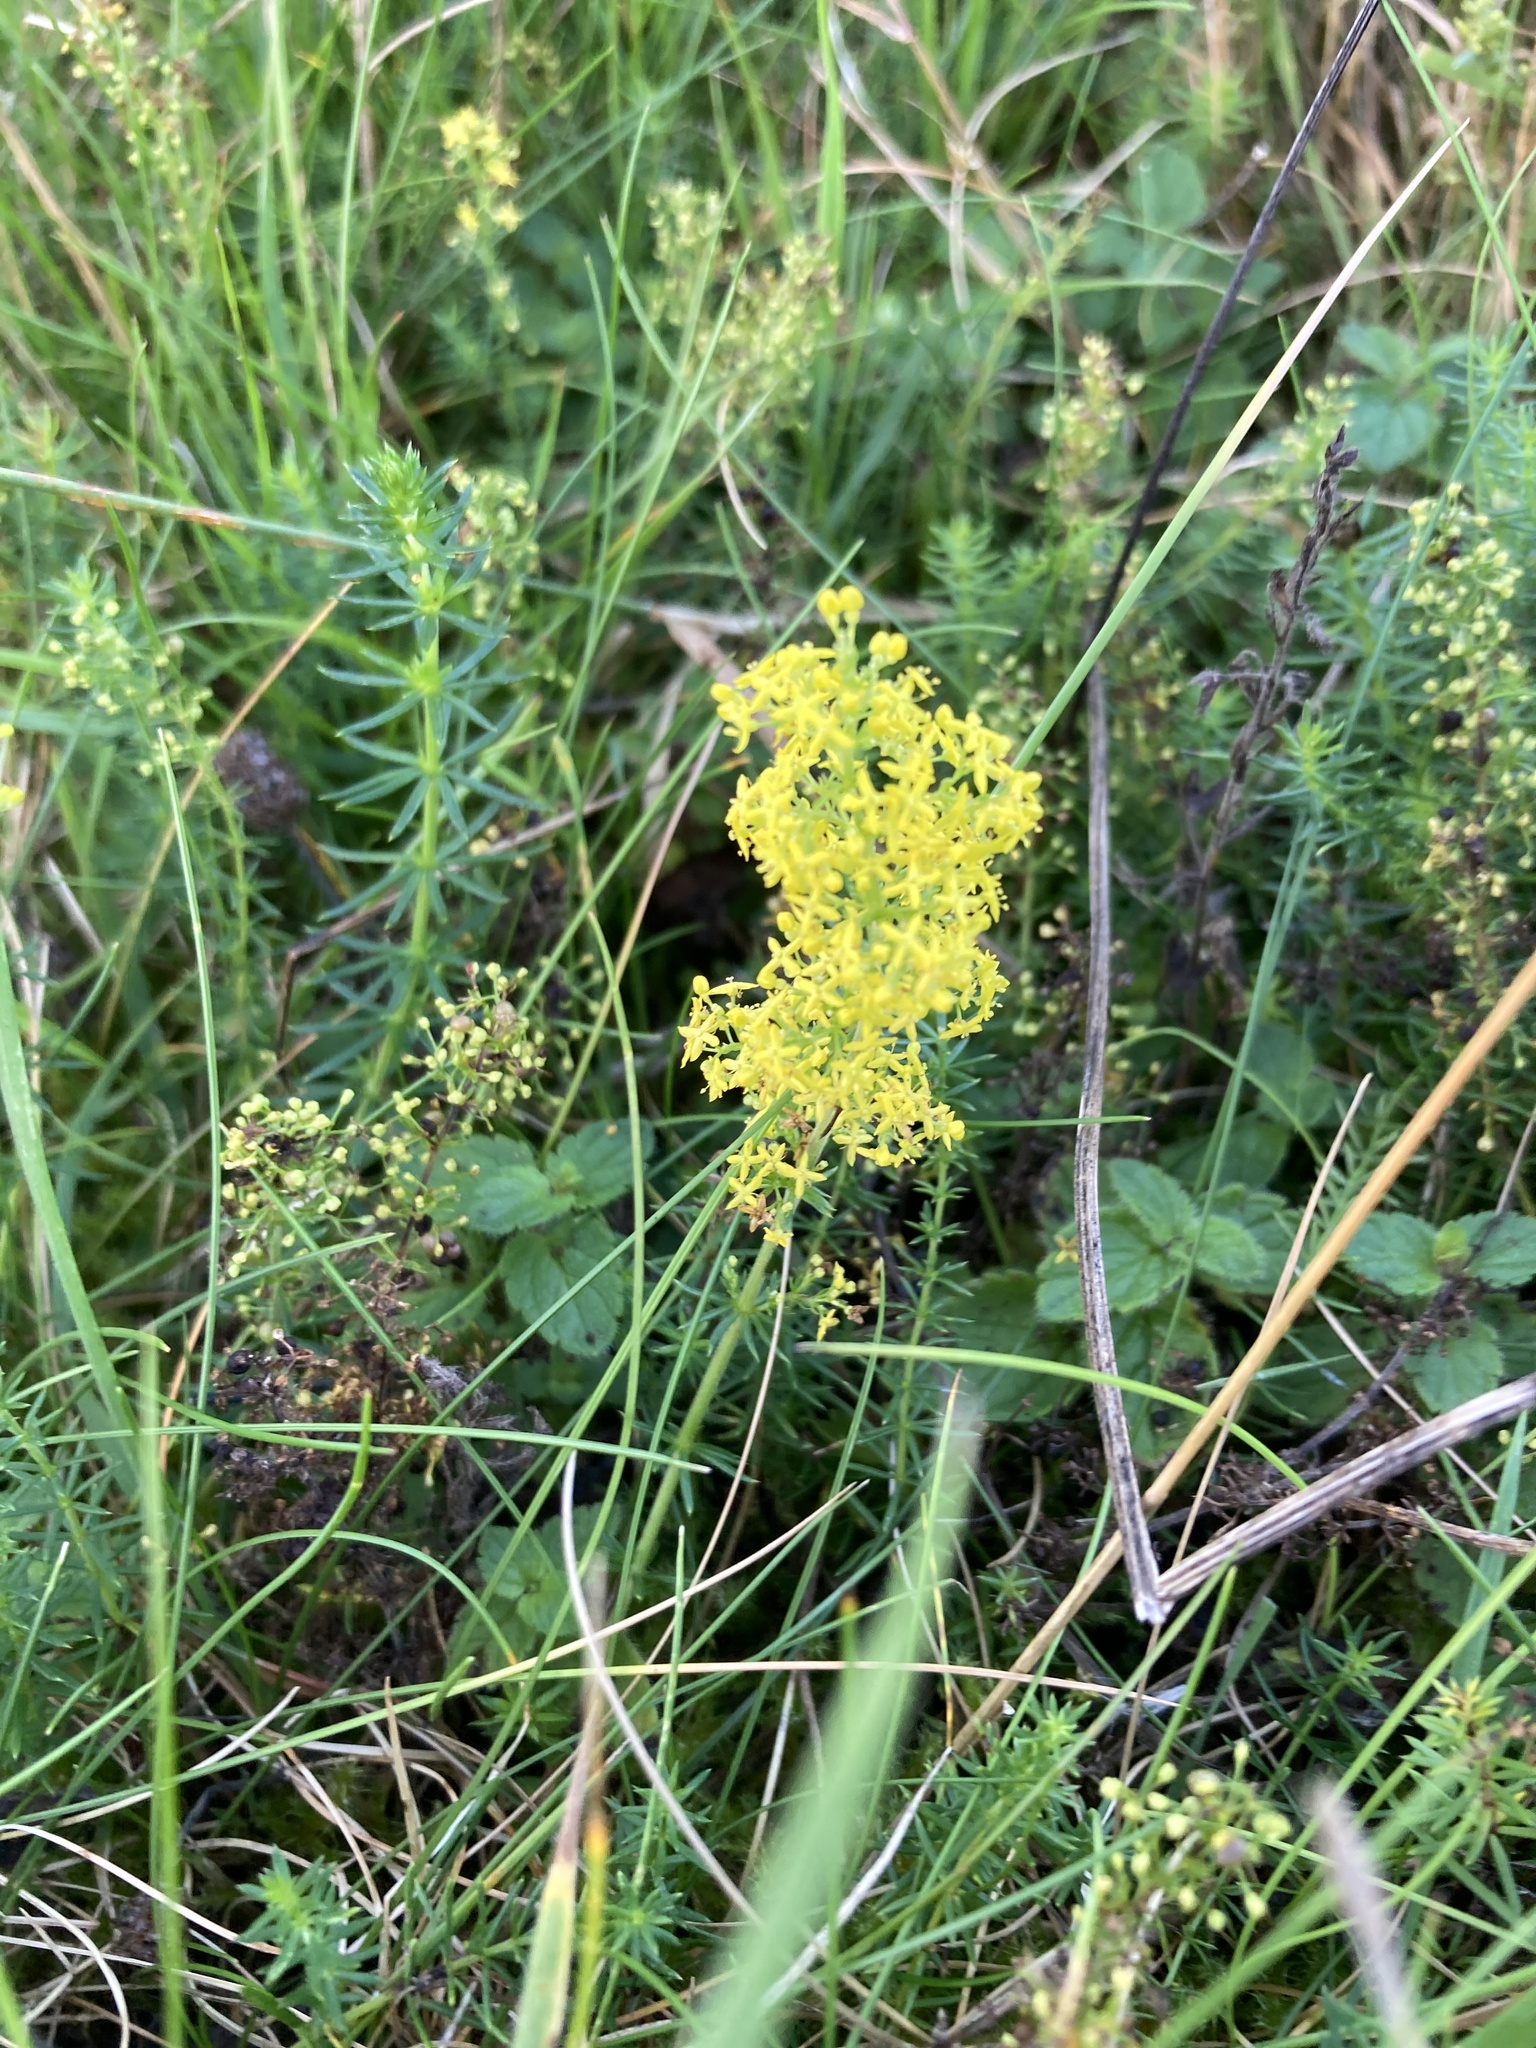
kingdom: Plantae
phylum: Tracheophyta
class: Magnoliopsida
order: Gentianales
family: Rubiaceae
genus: Galium
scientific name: Galium verum
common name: Lady's bedstraw
